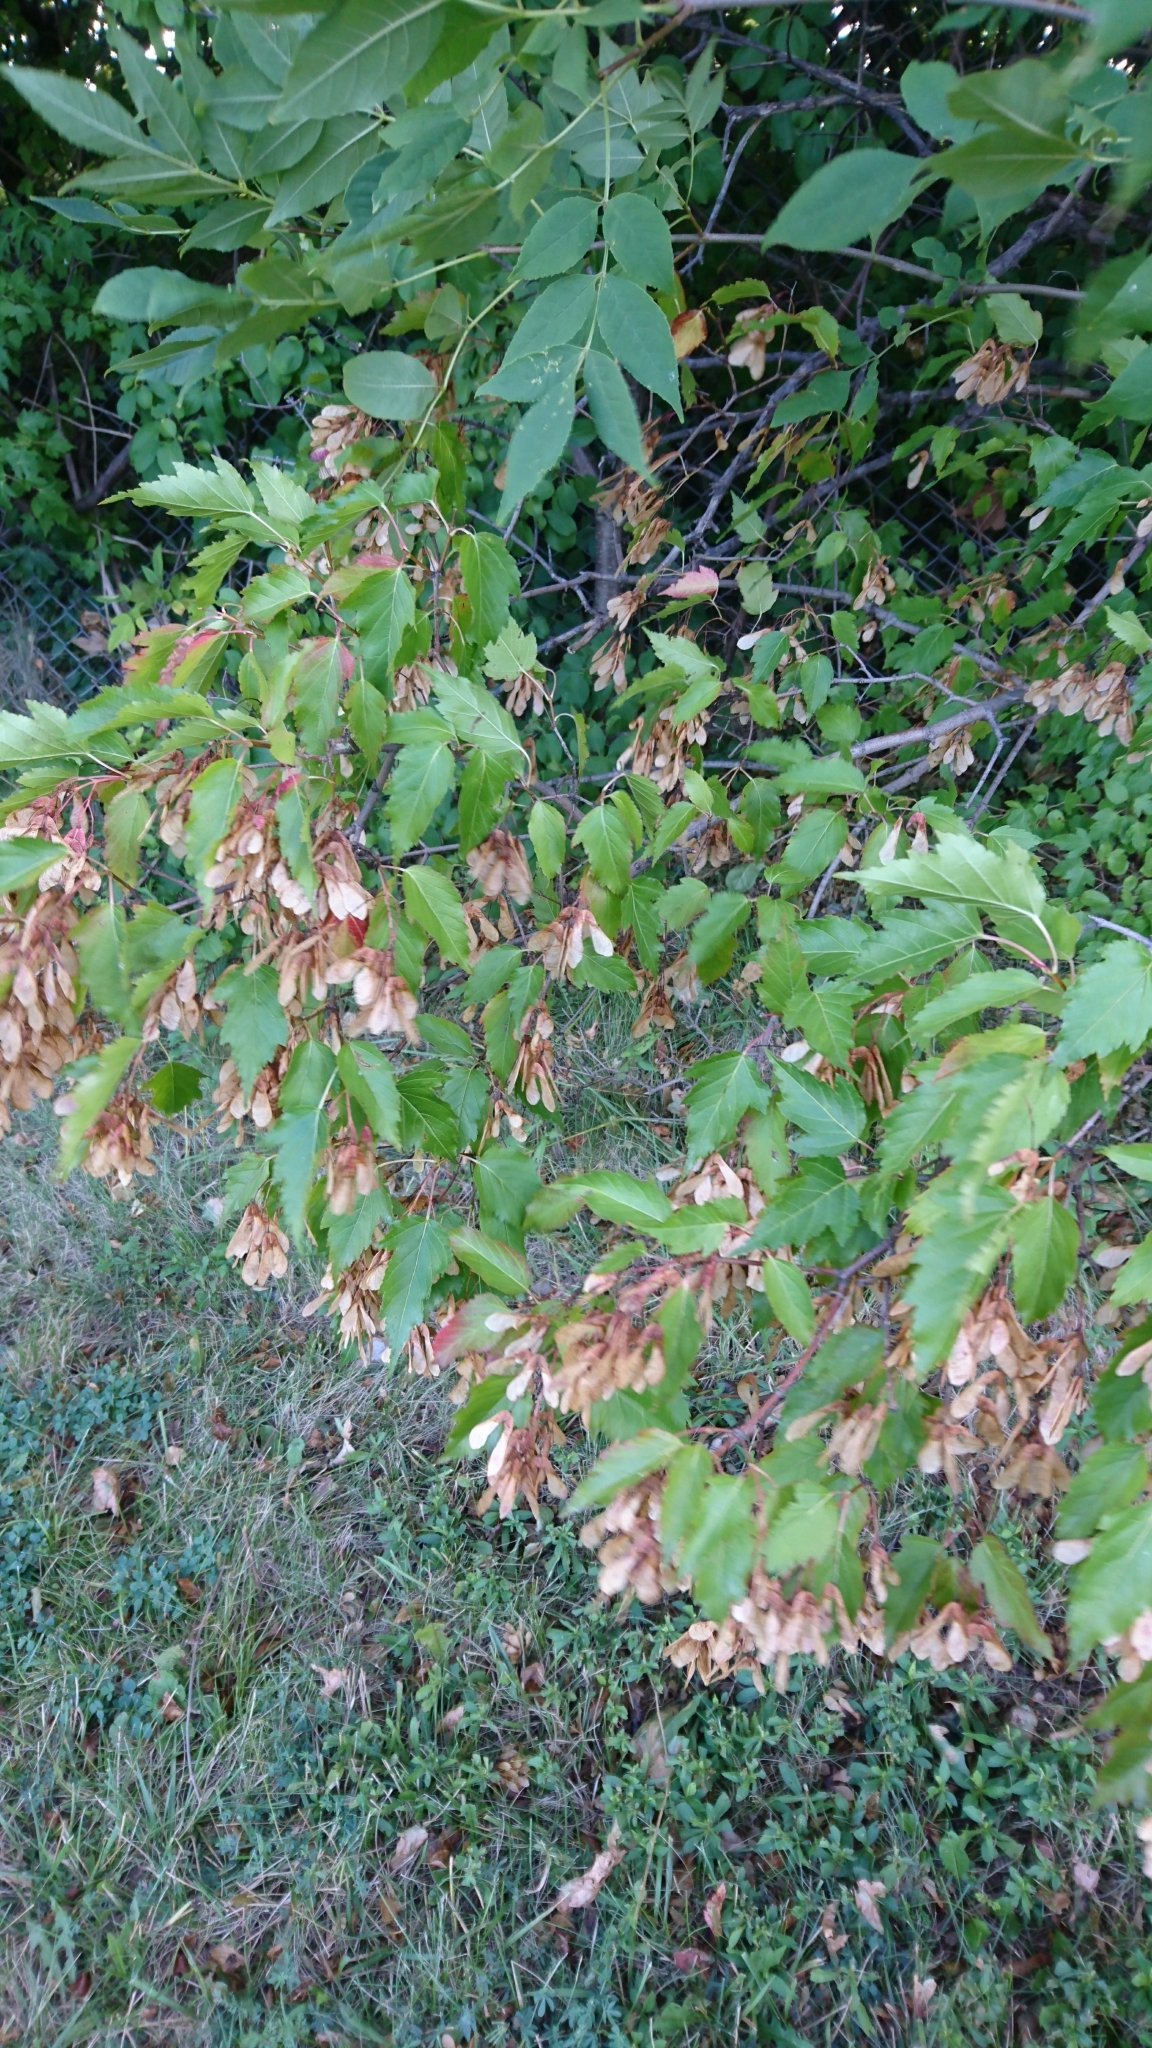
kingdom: Plantae
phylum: Tracheophyta
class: Magnoliopsida
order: Sapindales
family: Sapindaceae
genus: Acer
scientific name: Acer tataricum
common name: Tartar maple
